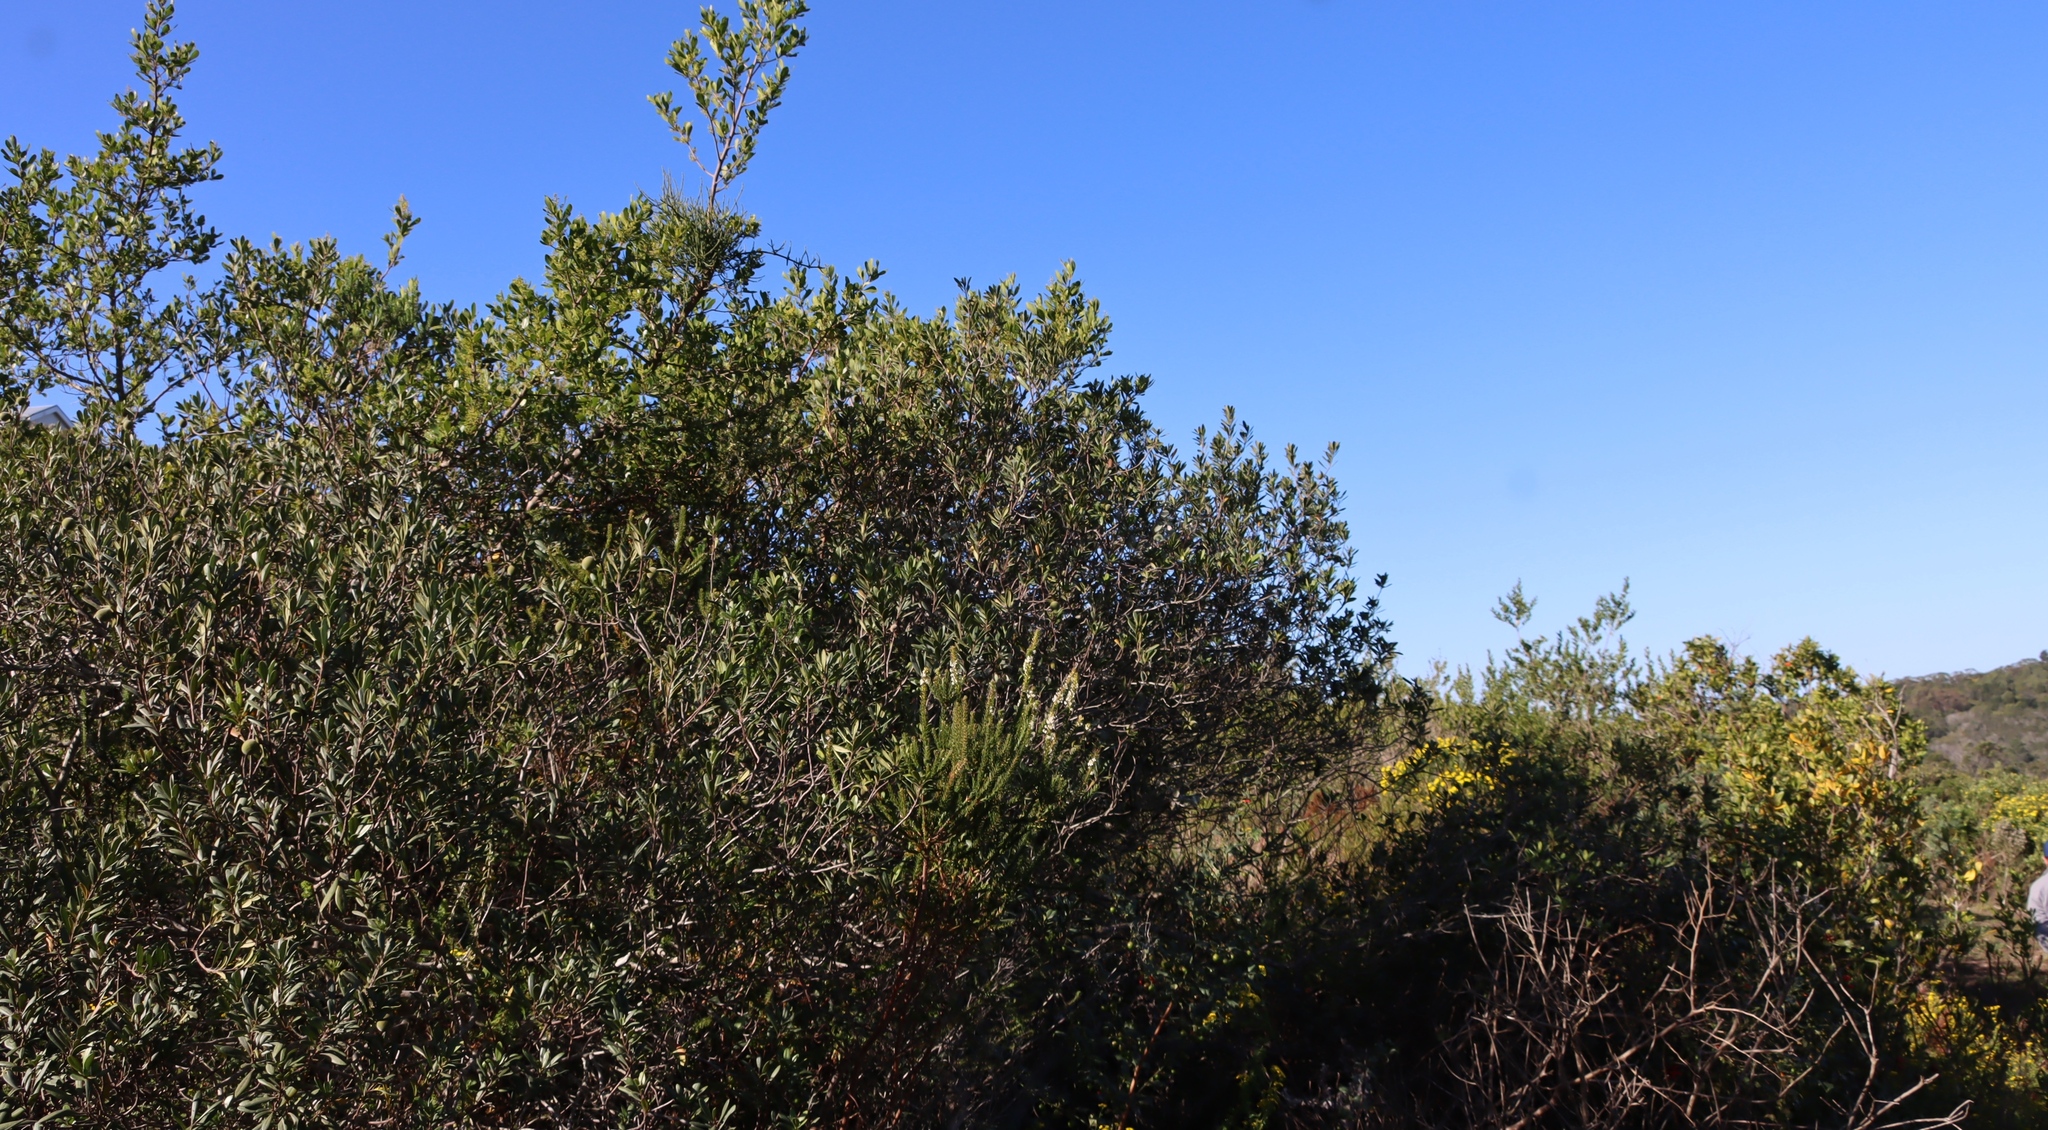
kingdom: Plantae
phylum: Tracheophyta
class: Magnoliopsida
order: Ericales
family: Ebenaceae
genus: Diospyros
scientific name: Diospyros dichrophylla
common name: Common star-apple
